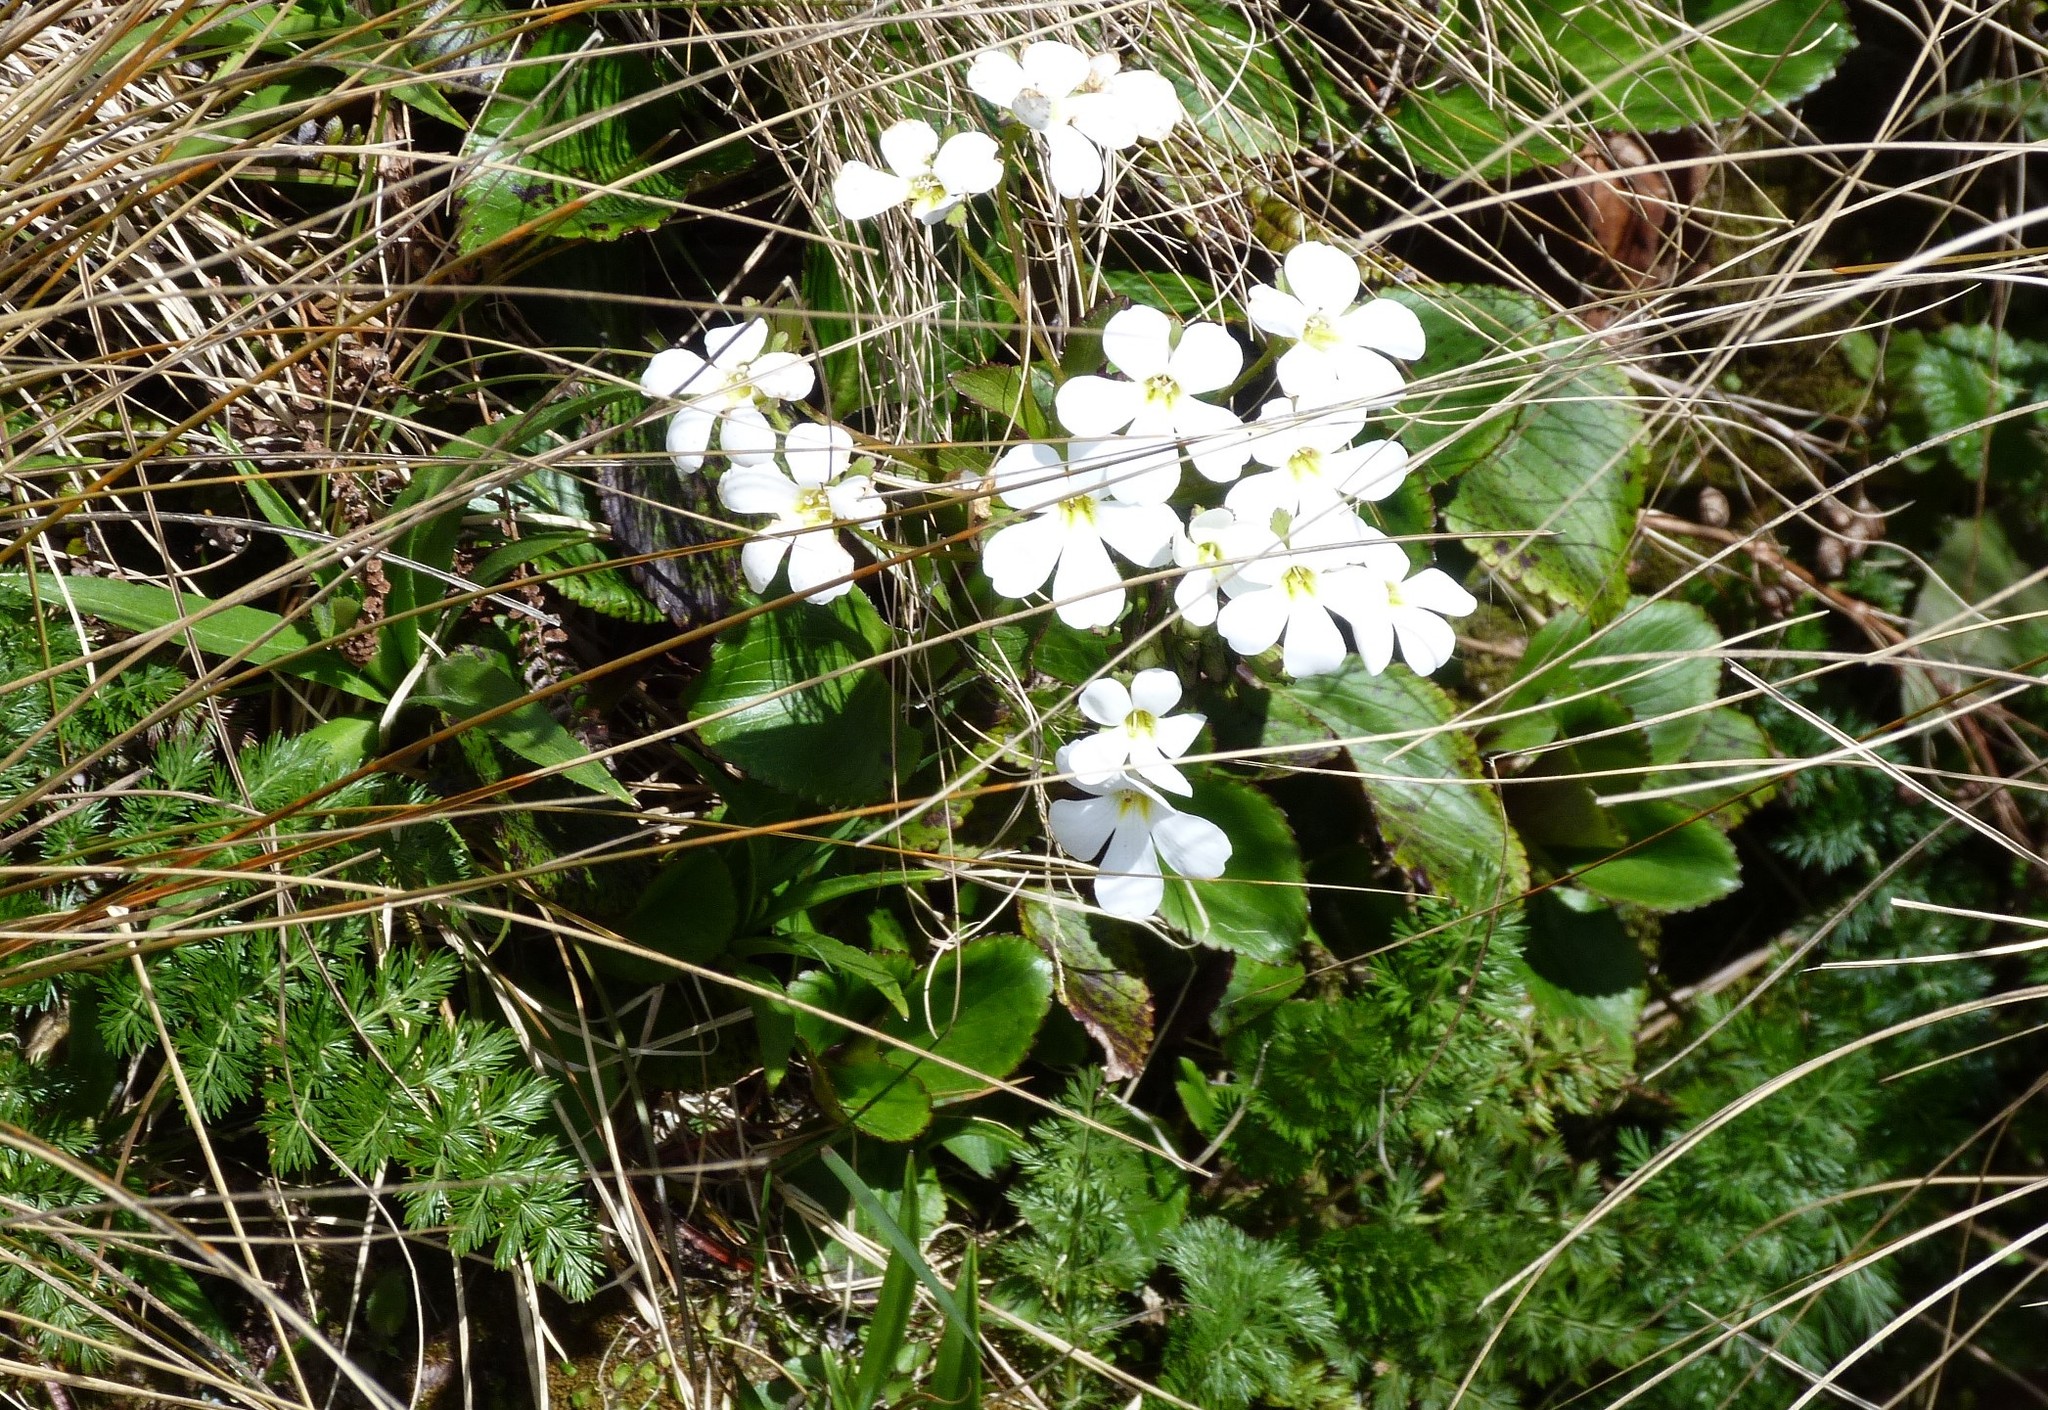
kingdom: Plantae
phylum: Tracheophyta
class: Magnoliopsida
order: Lamiales
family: Plantaginaceae
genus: Ourisia
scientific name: Ourisia macrophylla
